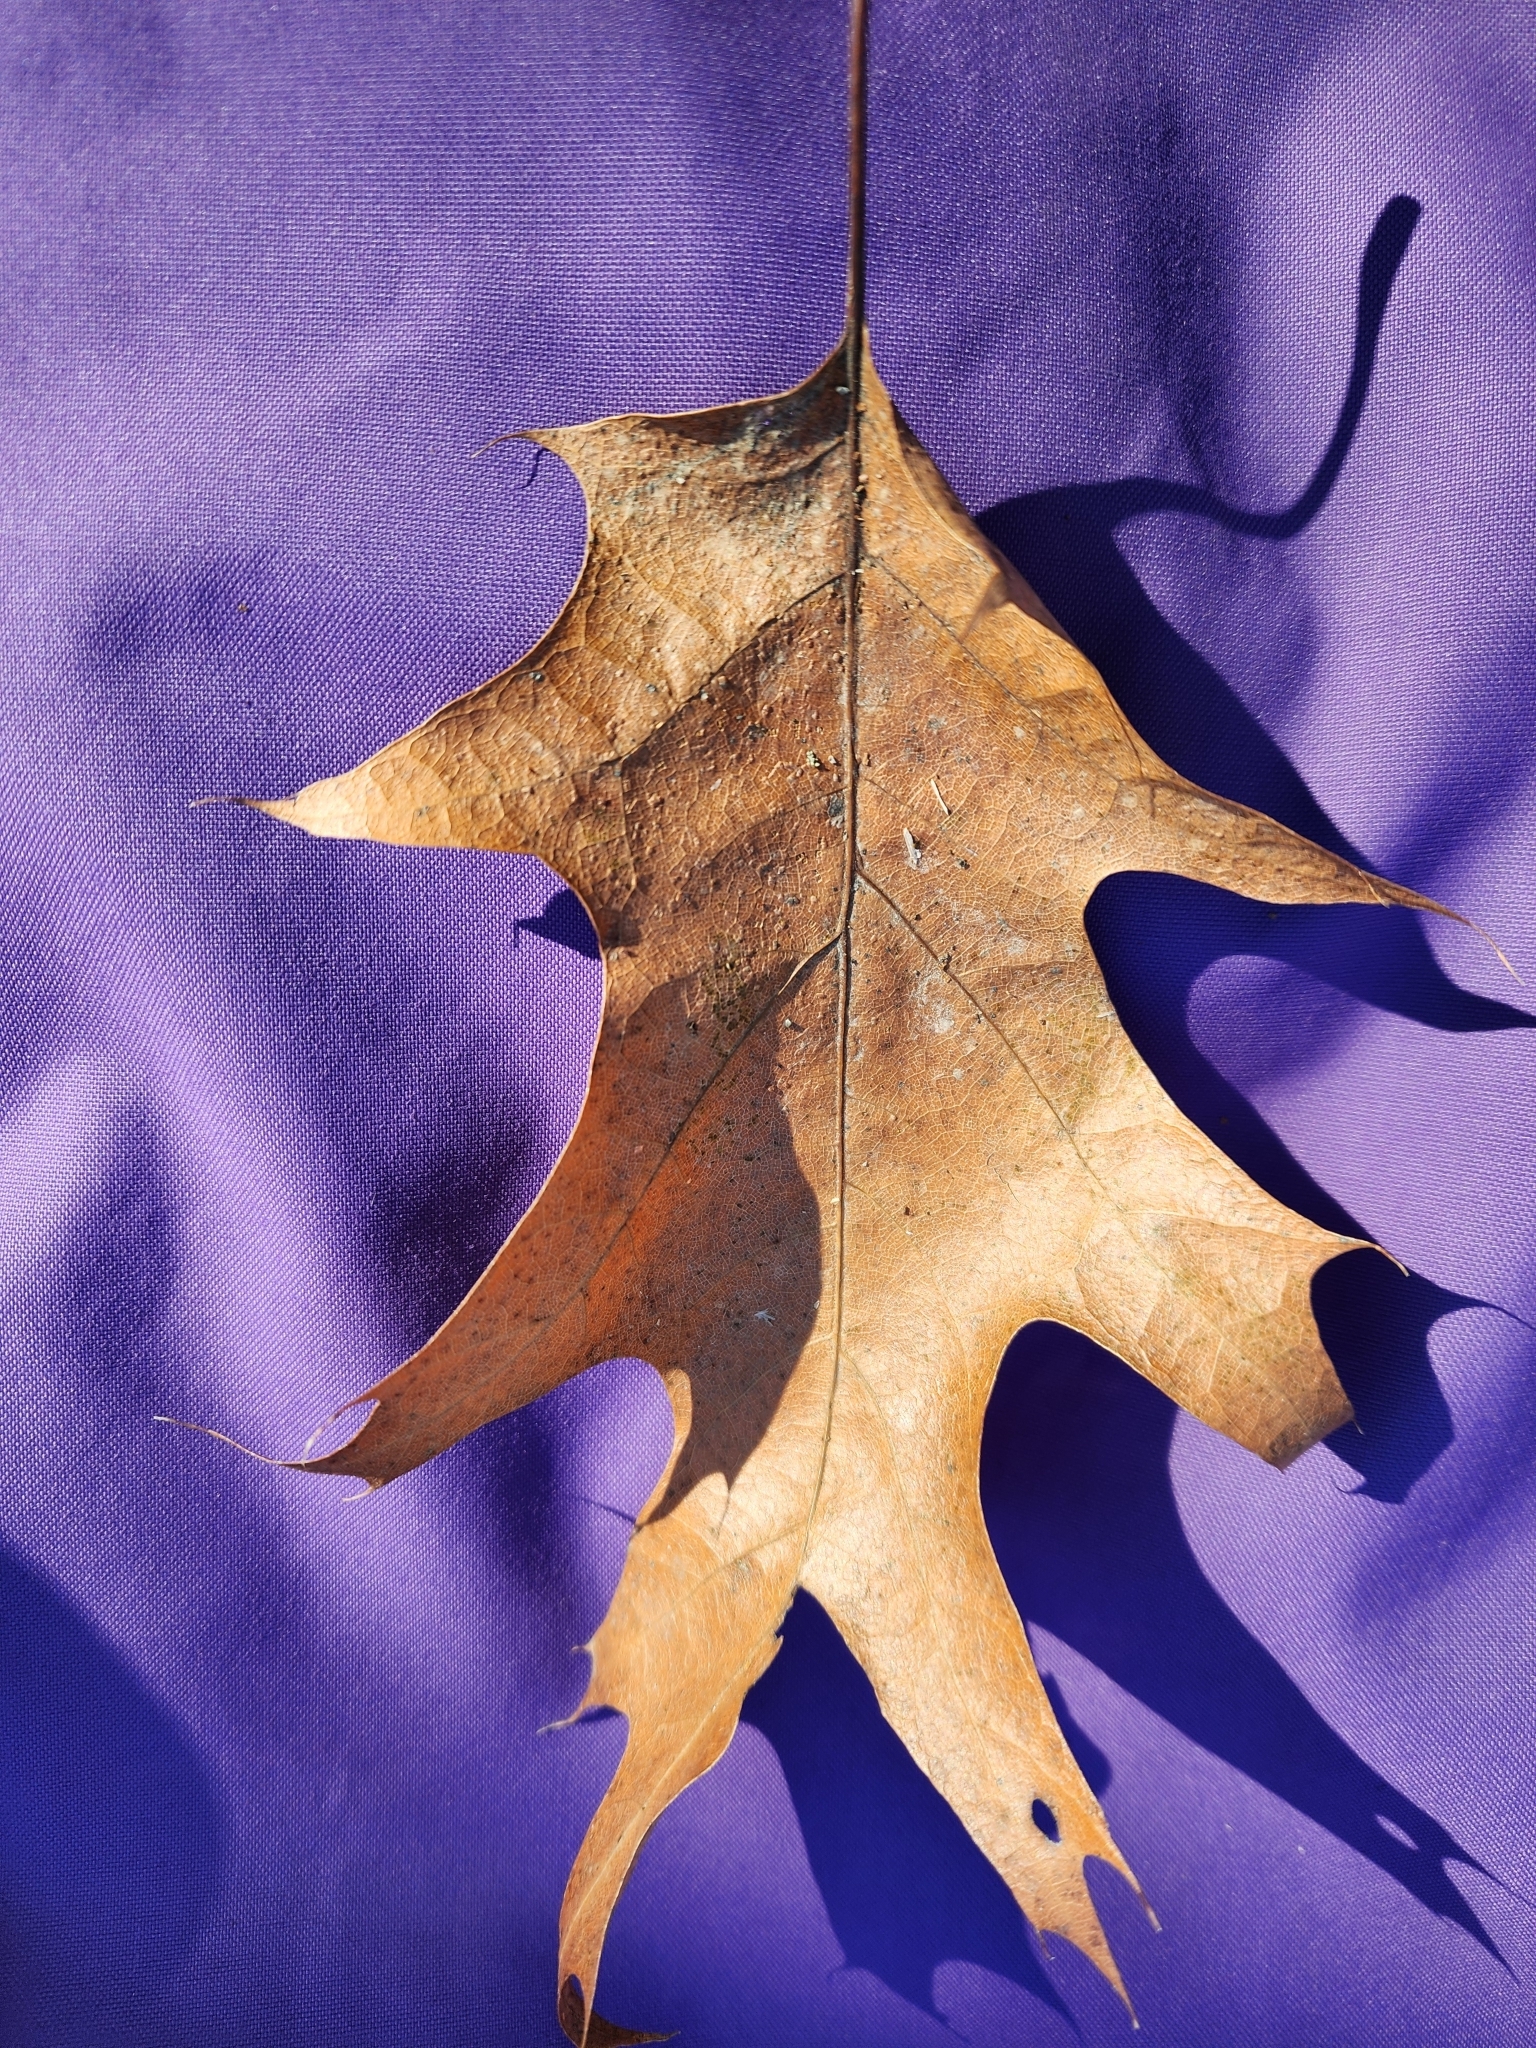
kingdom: Plantae
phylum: Tracheophyta
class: Magnoliopsida
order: Fagales
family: Fagaceae
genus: Quercus
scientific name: Quercus rubra
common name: Red oak
